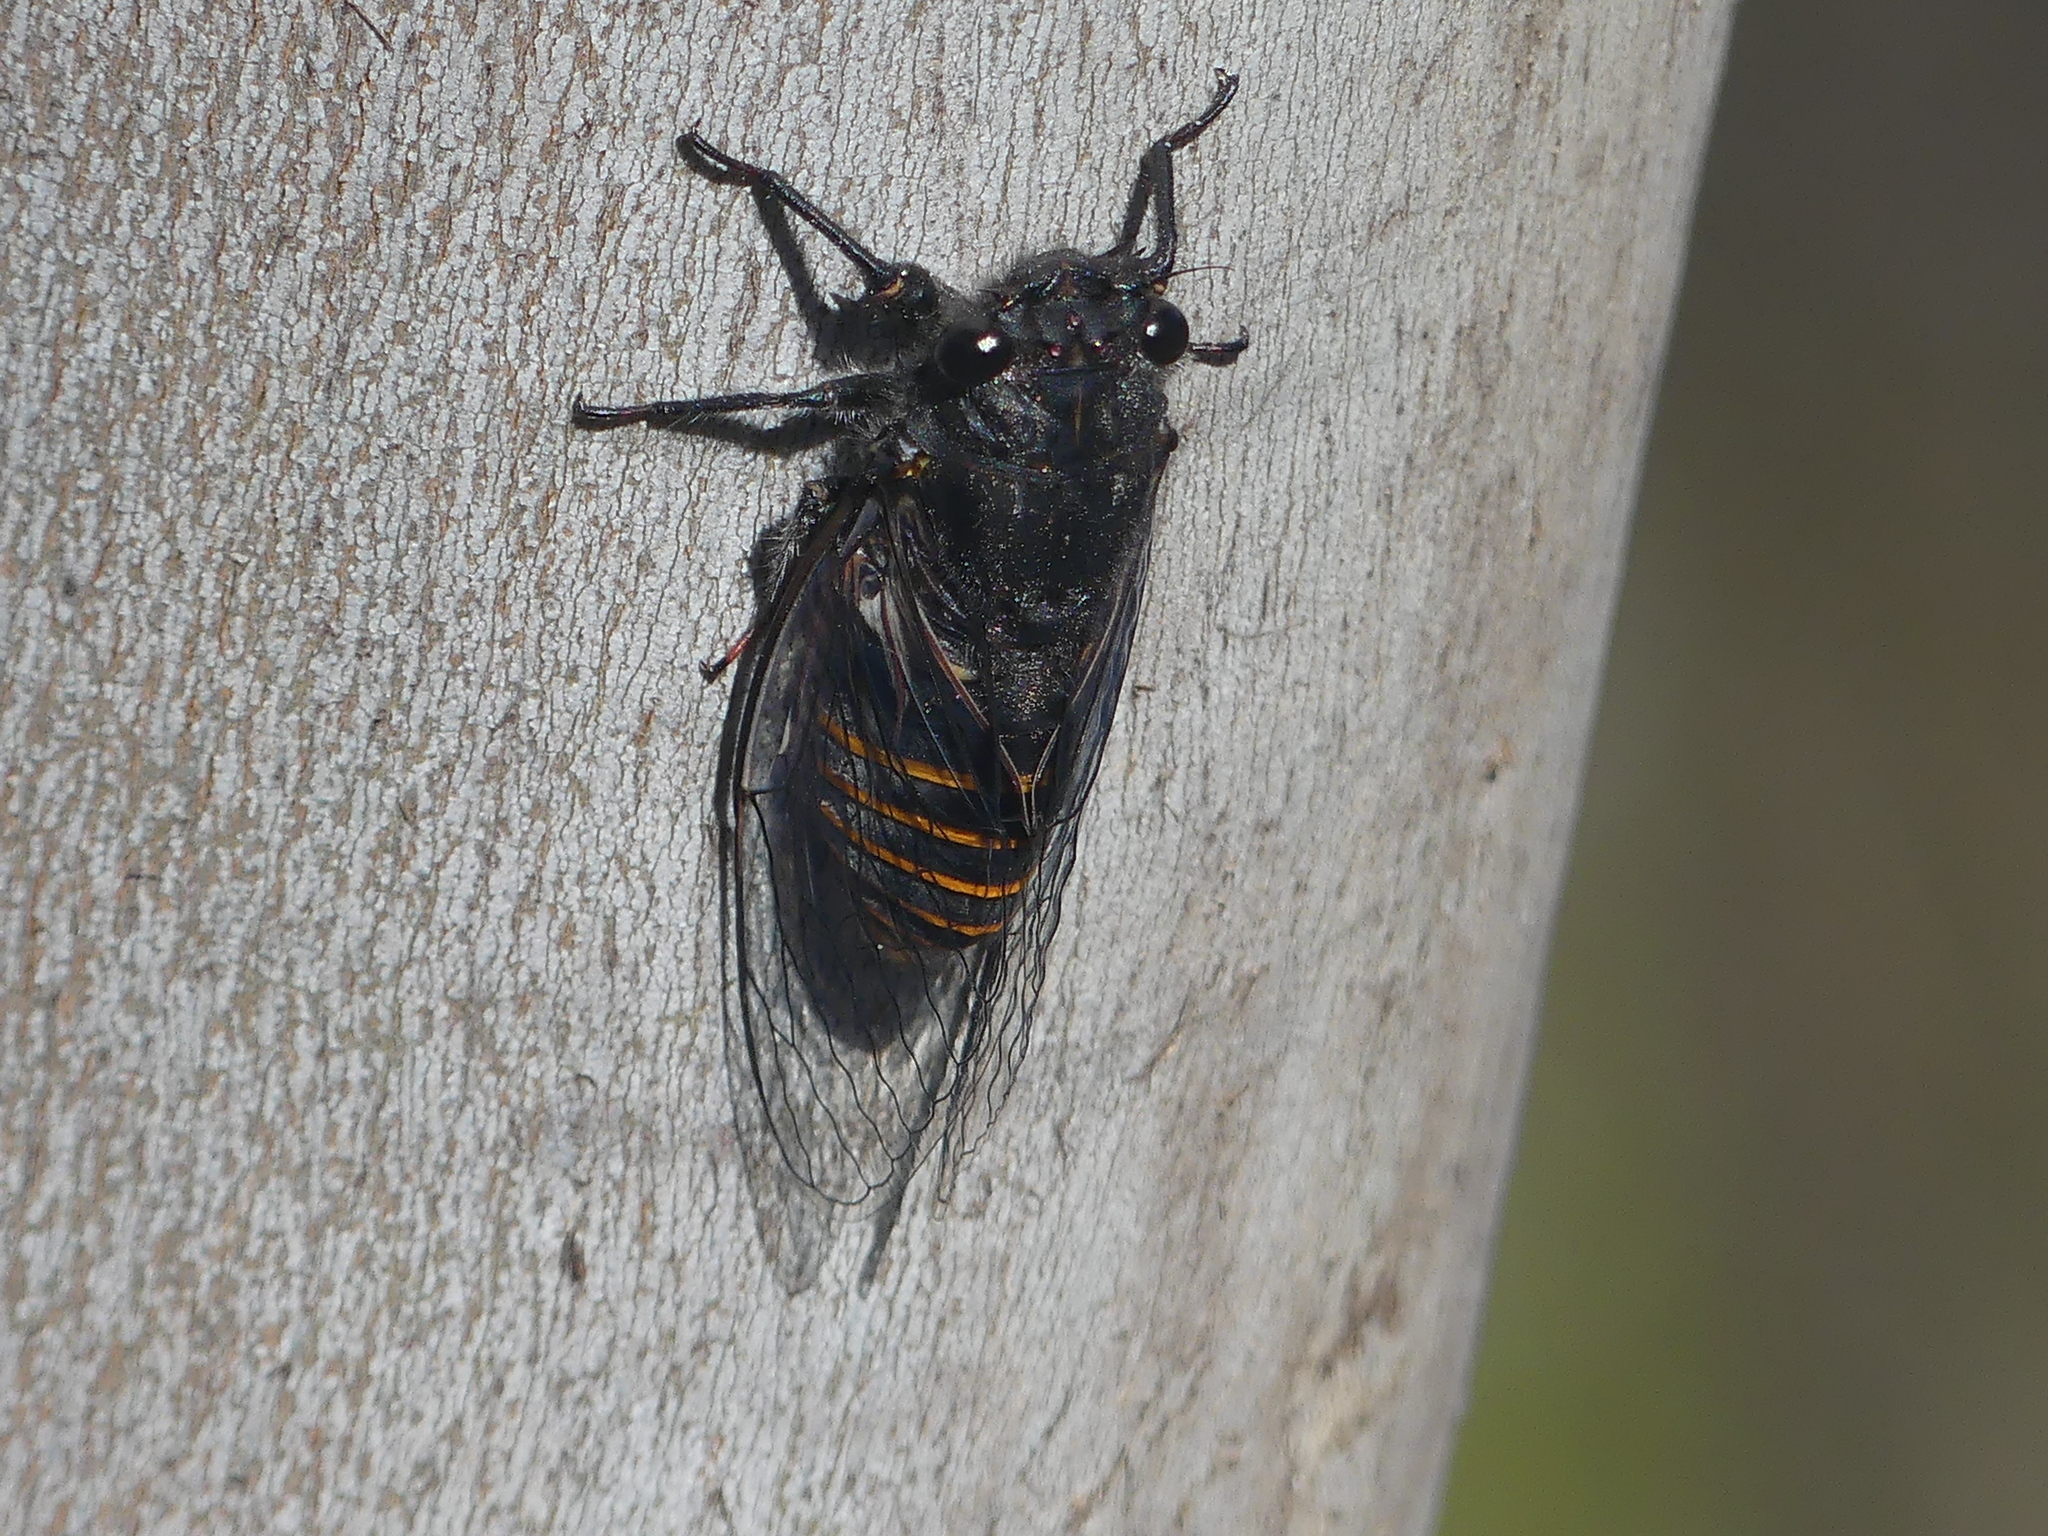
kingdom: Animalia
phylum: Arthropoda
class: Insecta
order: Hemiptera
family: Cicadidae
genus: Pauropsalta
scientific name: Pauropsalta mneme
